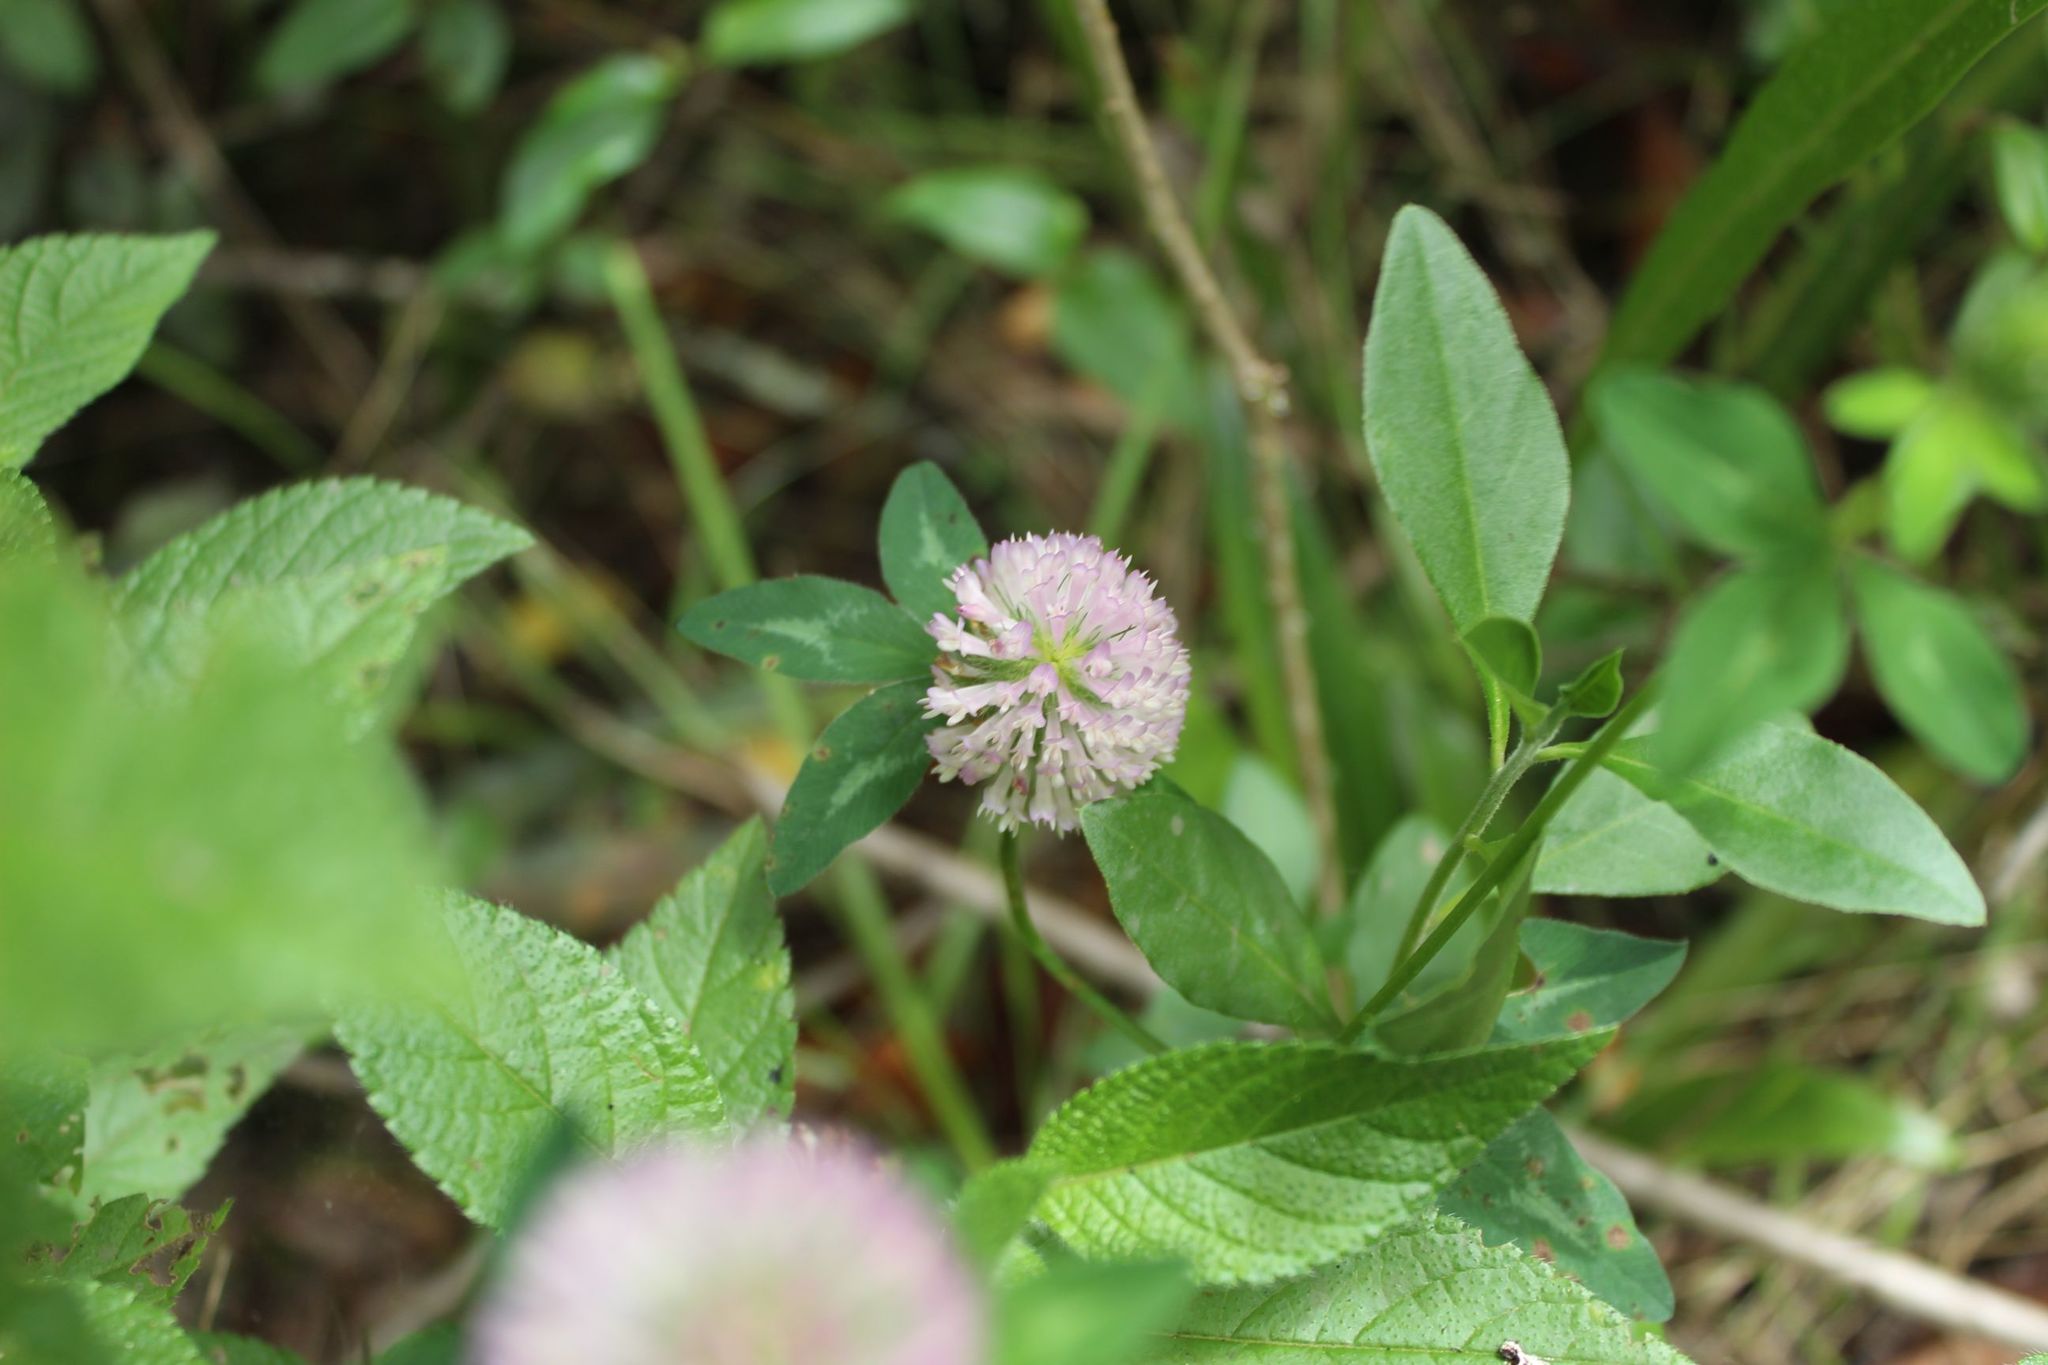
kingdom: Plantae
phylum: Tracheophyta
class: Magnoliopsida
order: Fabales
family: Fabaceae
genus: Trifolium
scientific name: Trifolium pratense
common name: Red clover
